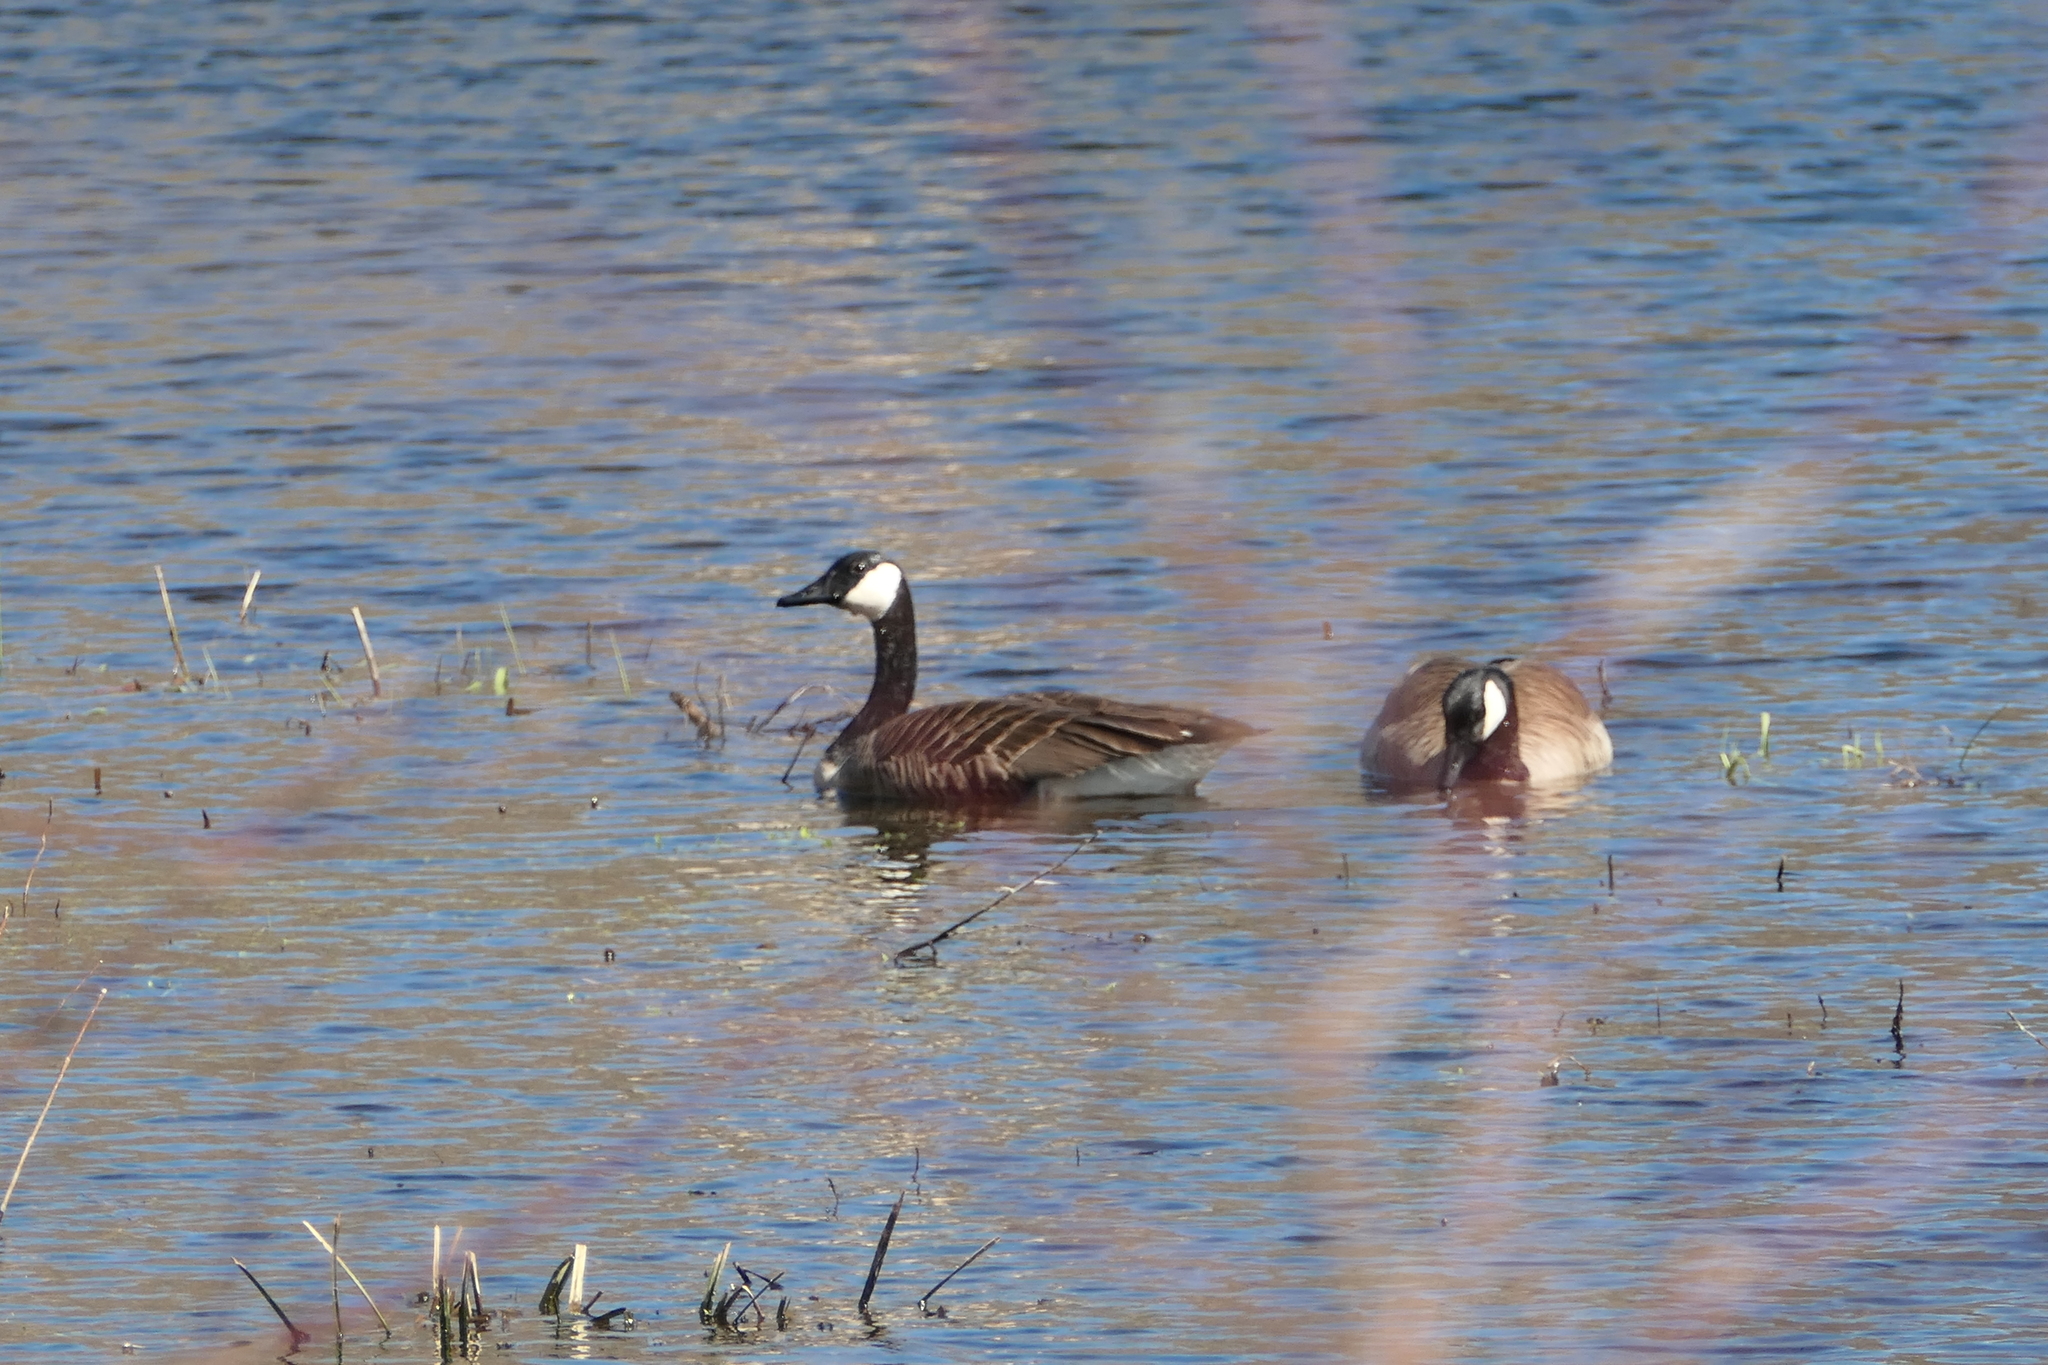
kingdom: Animalia
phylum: Chordata
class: Aves
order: Anseriformes
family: Anatidae
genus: Branta
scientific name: Branta canadensis
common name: Canada goose
